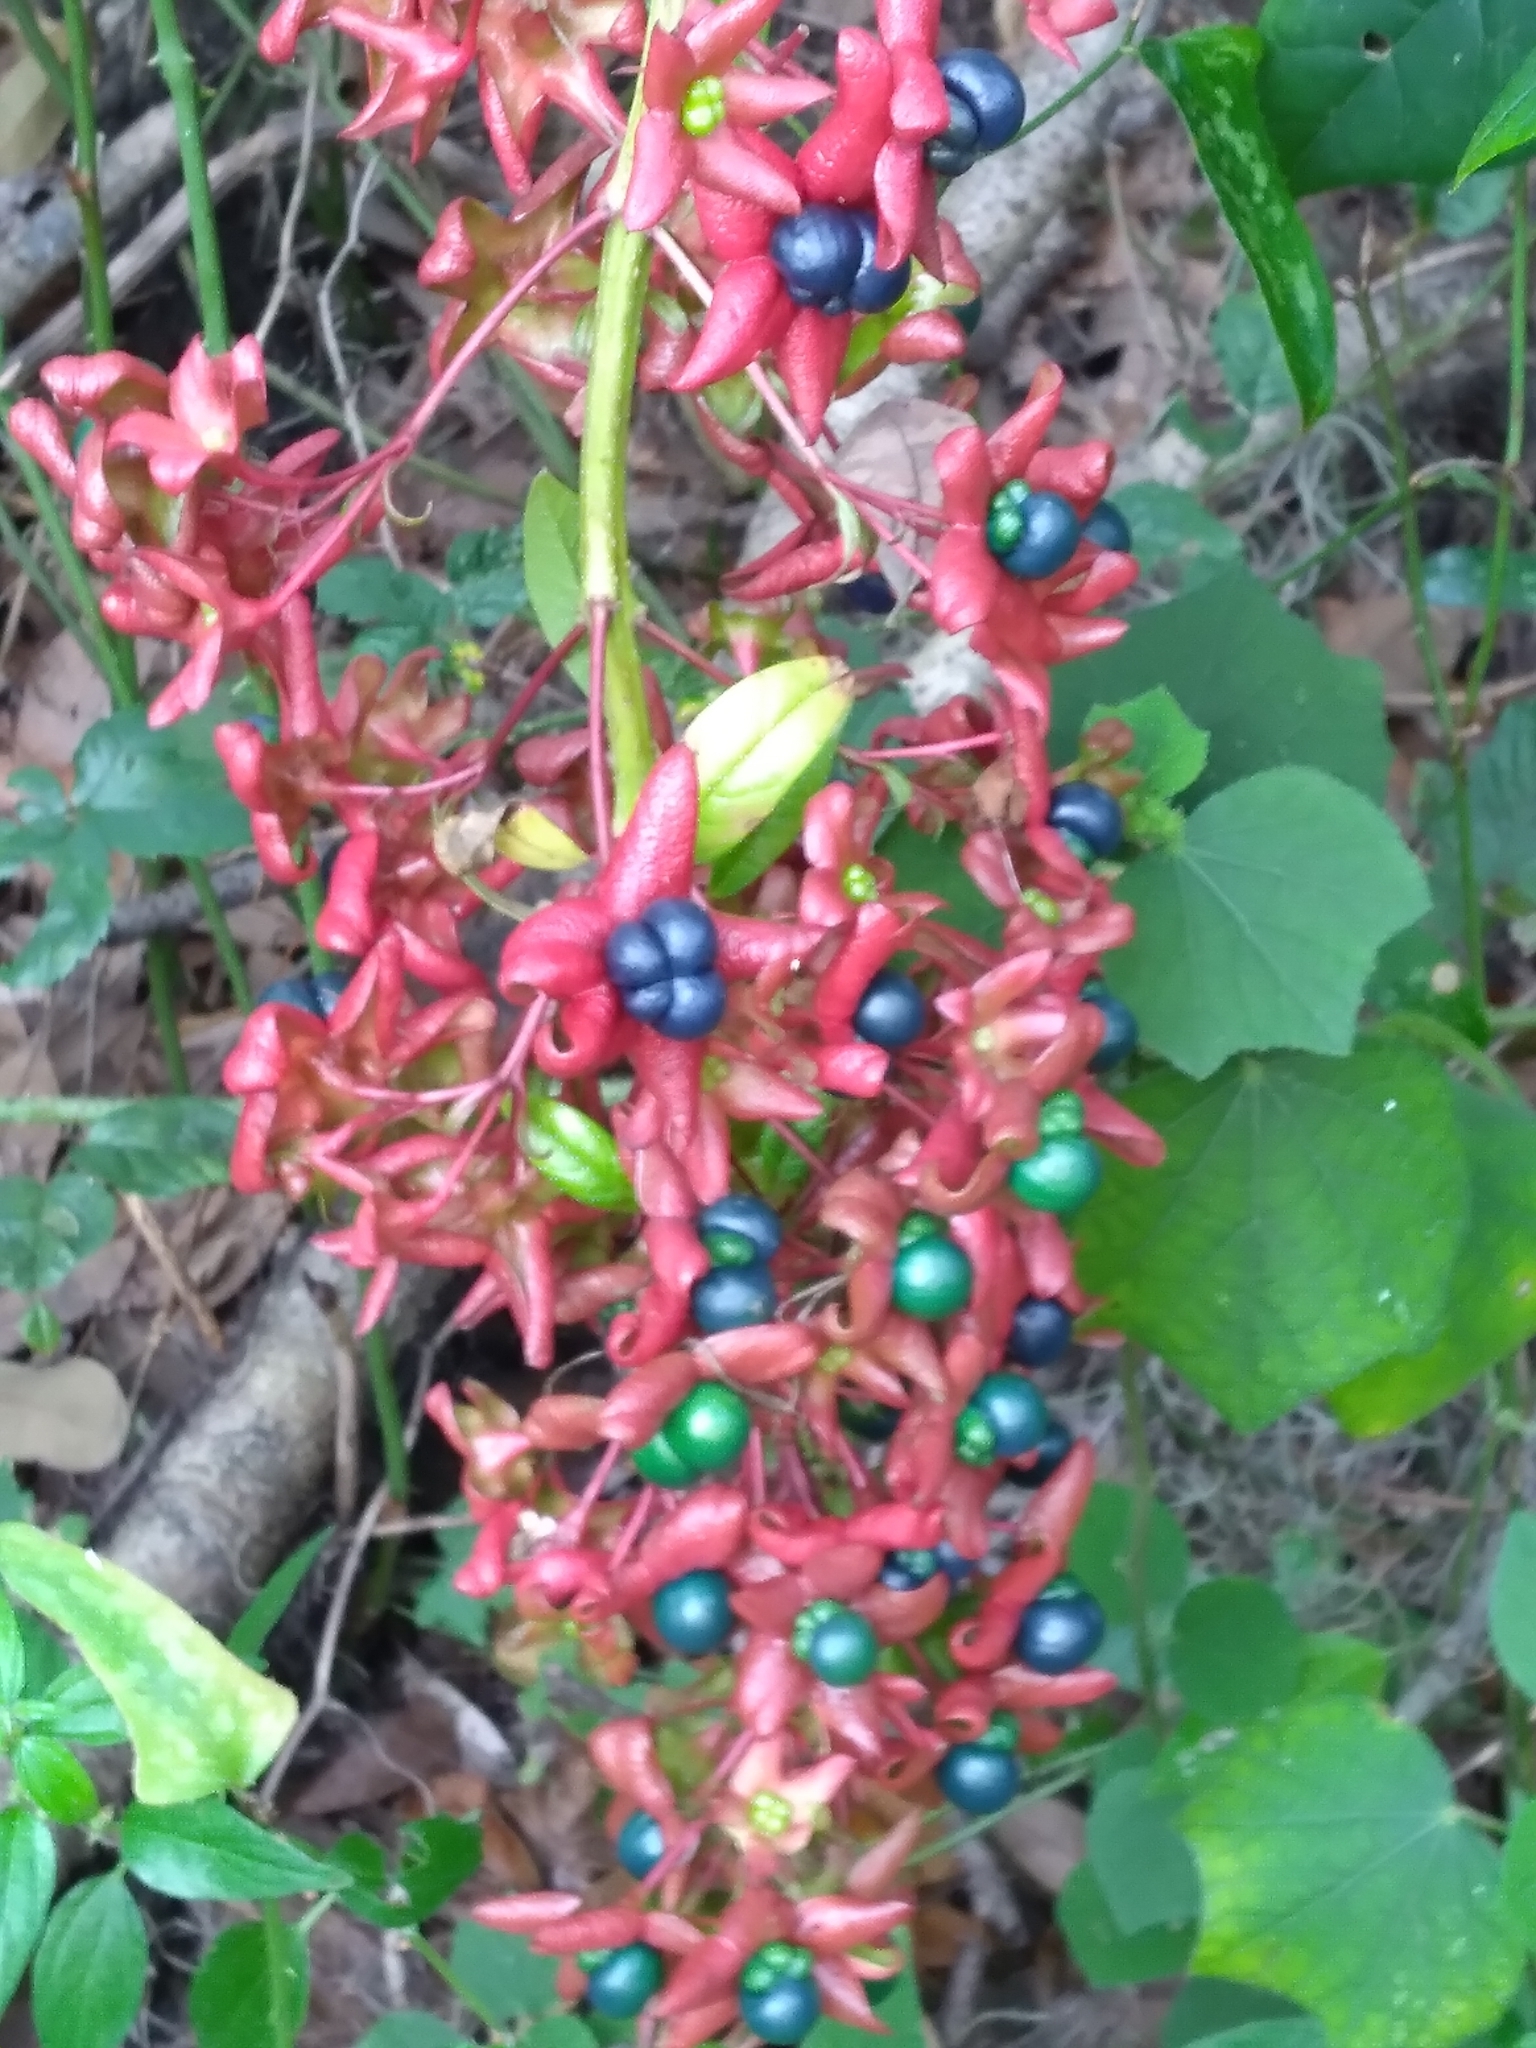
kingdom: Plantae
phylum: Tracheophyta
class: Magnoliopsida
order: Lamiales
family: Lamiaceae
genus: Clerodendrum
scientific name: Clerodendrum indicum
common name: Turk's turbin
